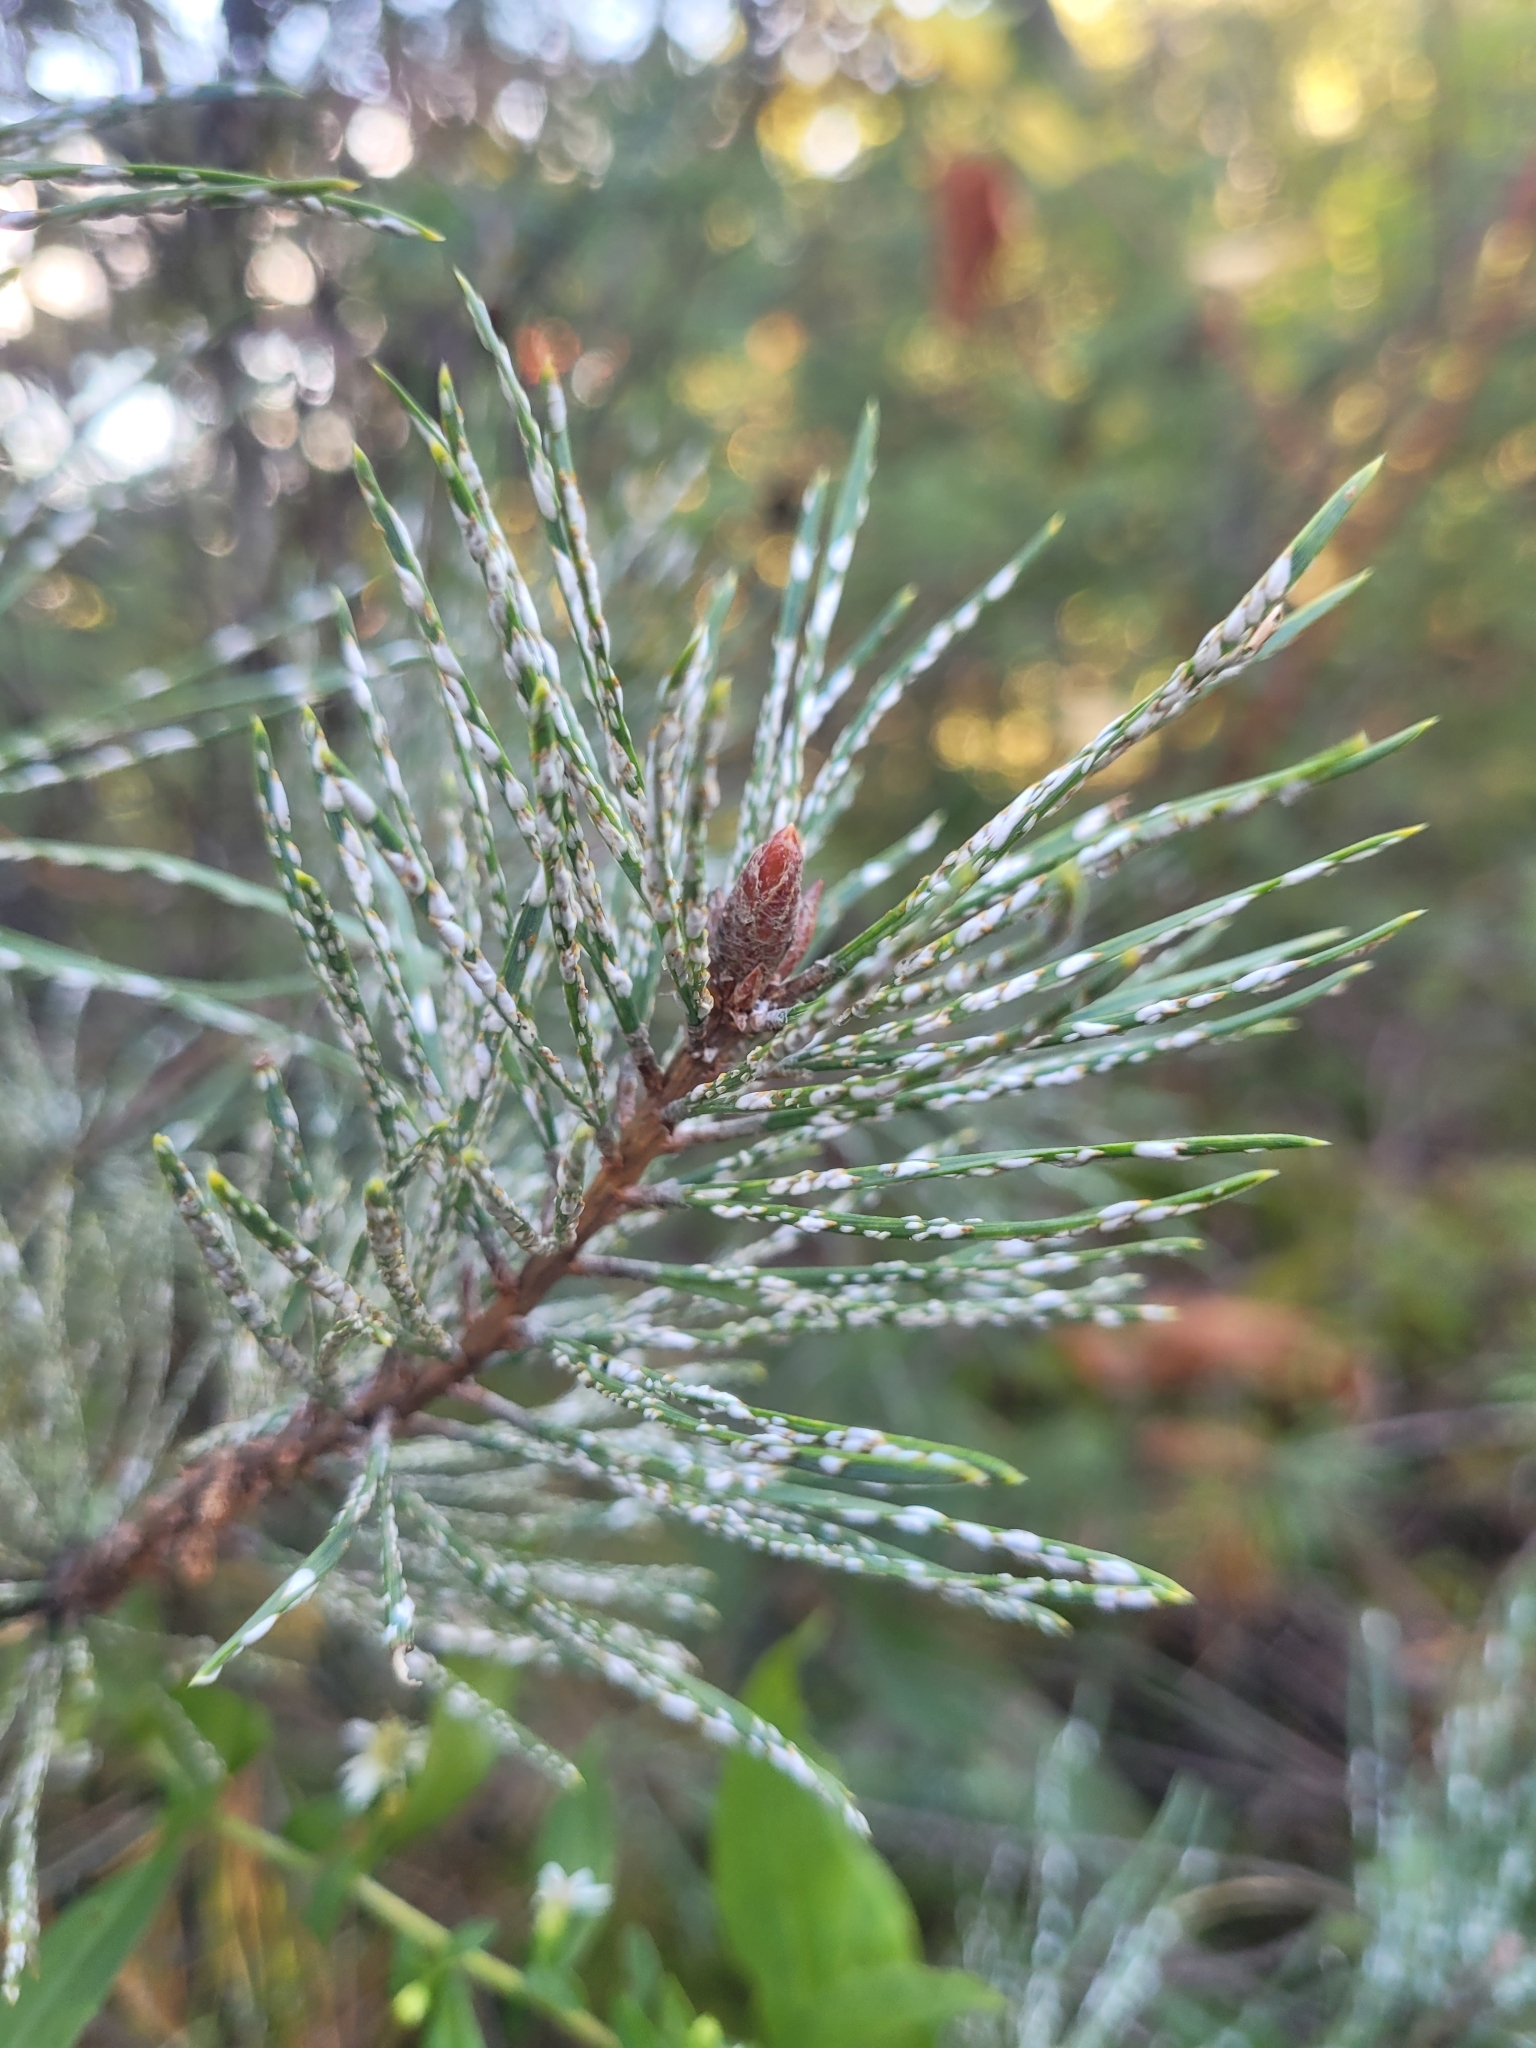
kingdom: Animalia
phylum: Arthropoda
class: Insecta
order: Hemiptera
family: Diaspididae
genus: Chionaspis
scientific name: Chionaspis pinifoliae
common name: Pine leaf scale
